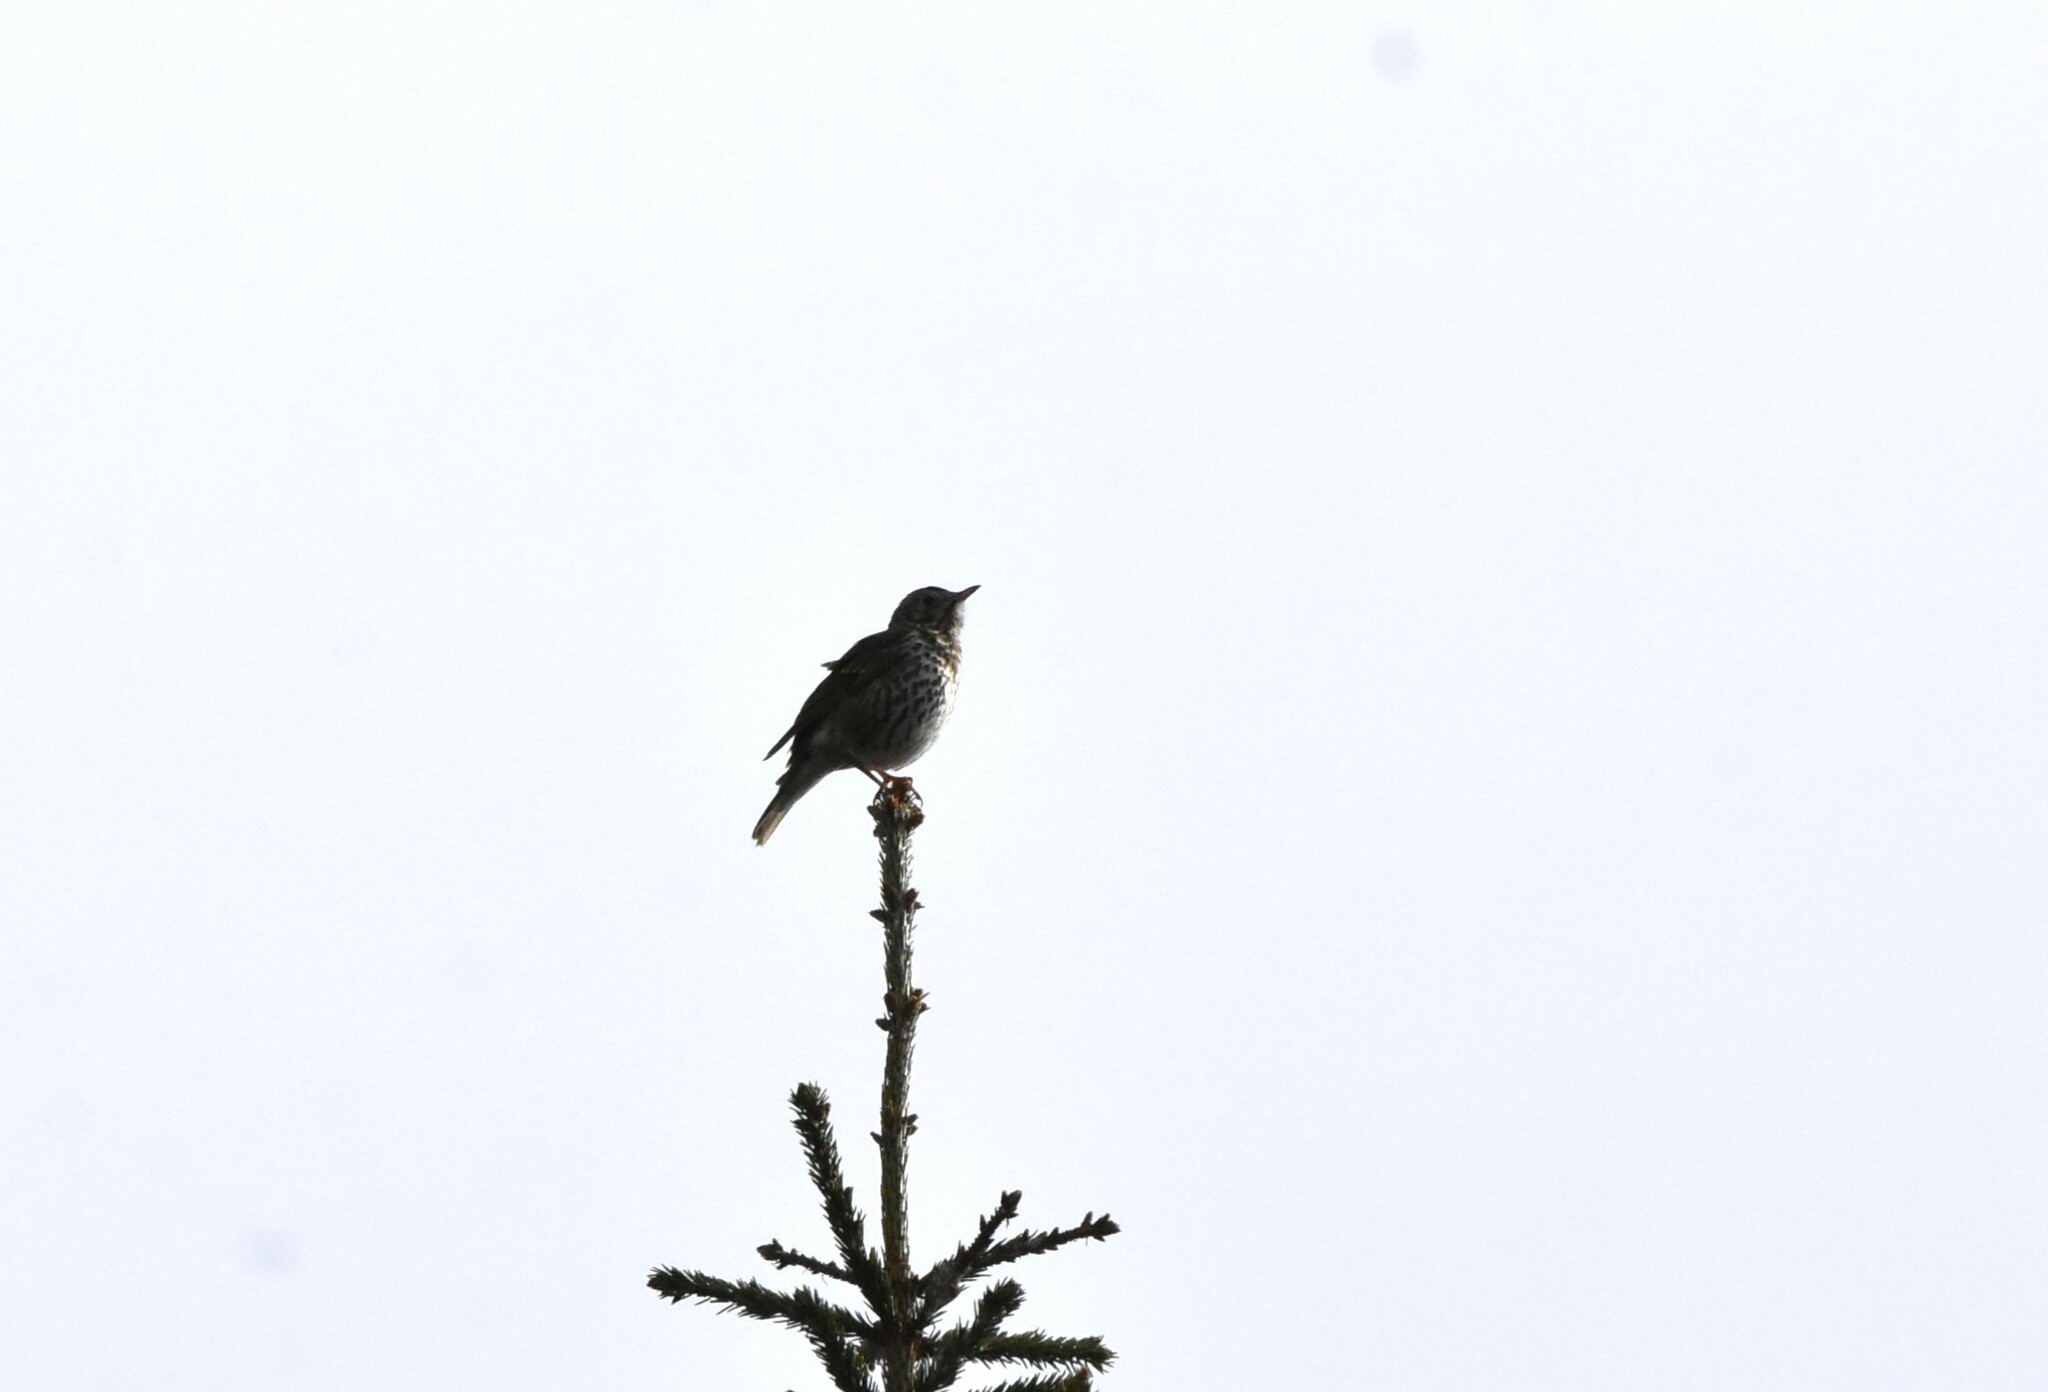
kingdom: Animalia
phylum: Chordata
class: Aves
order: Passeriformes
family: Turdidae
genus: Turdus
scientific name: Turdus philomelos
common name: Song thrush
